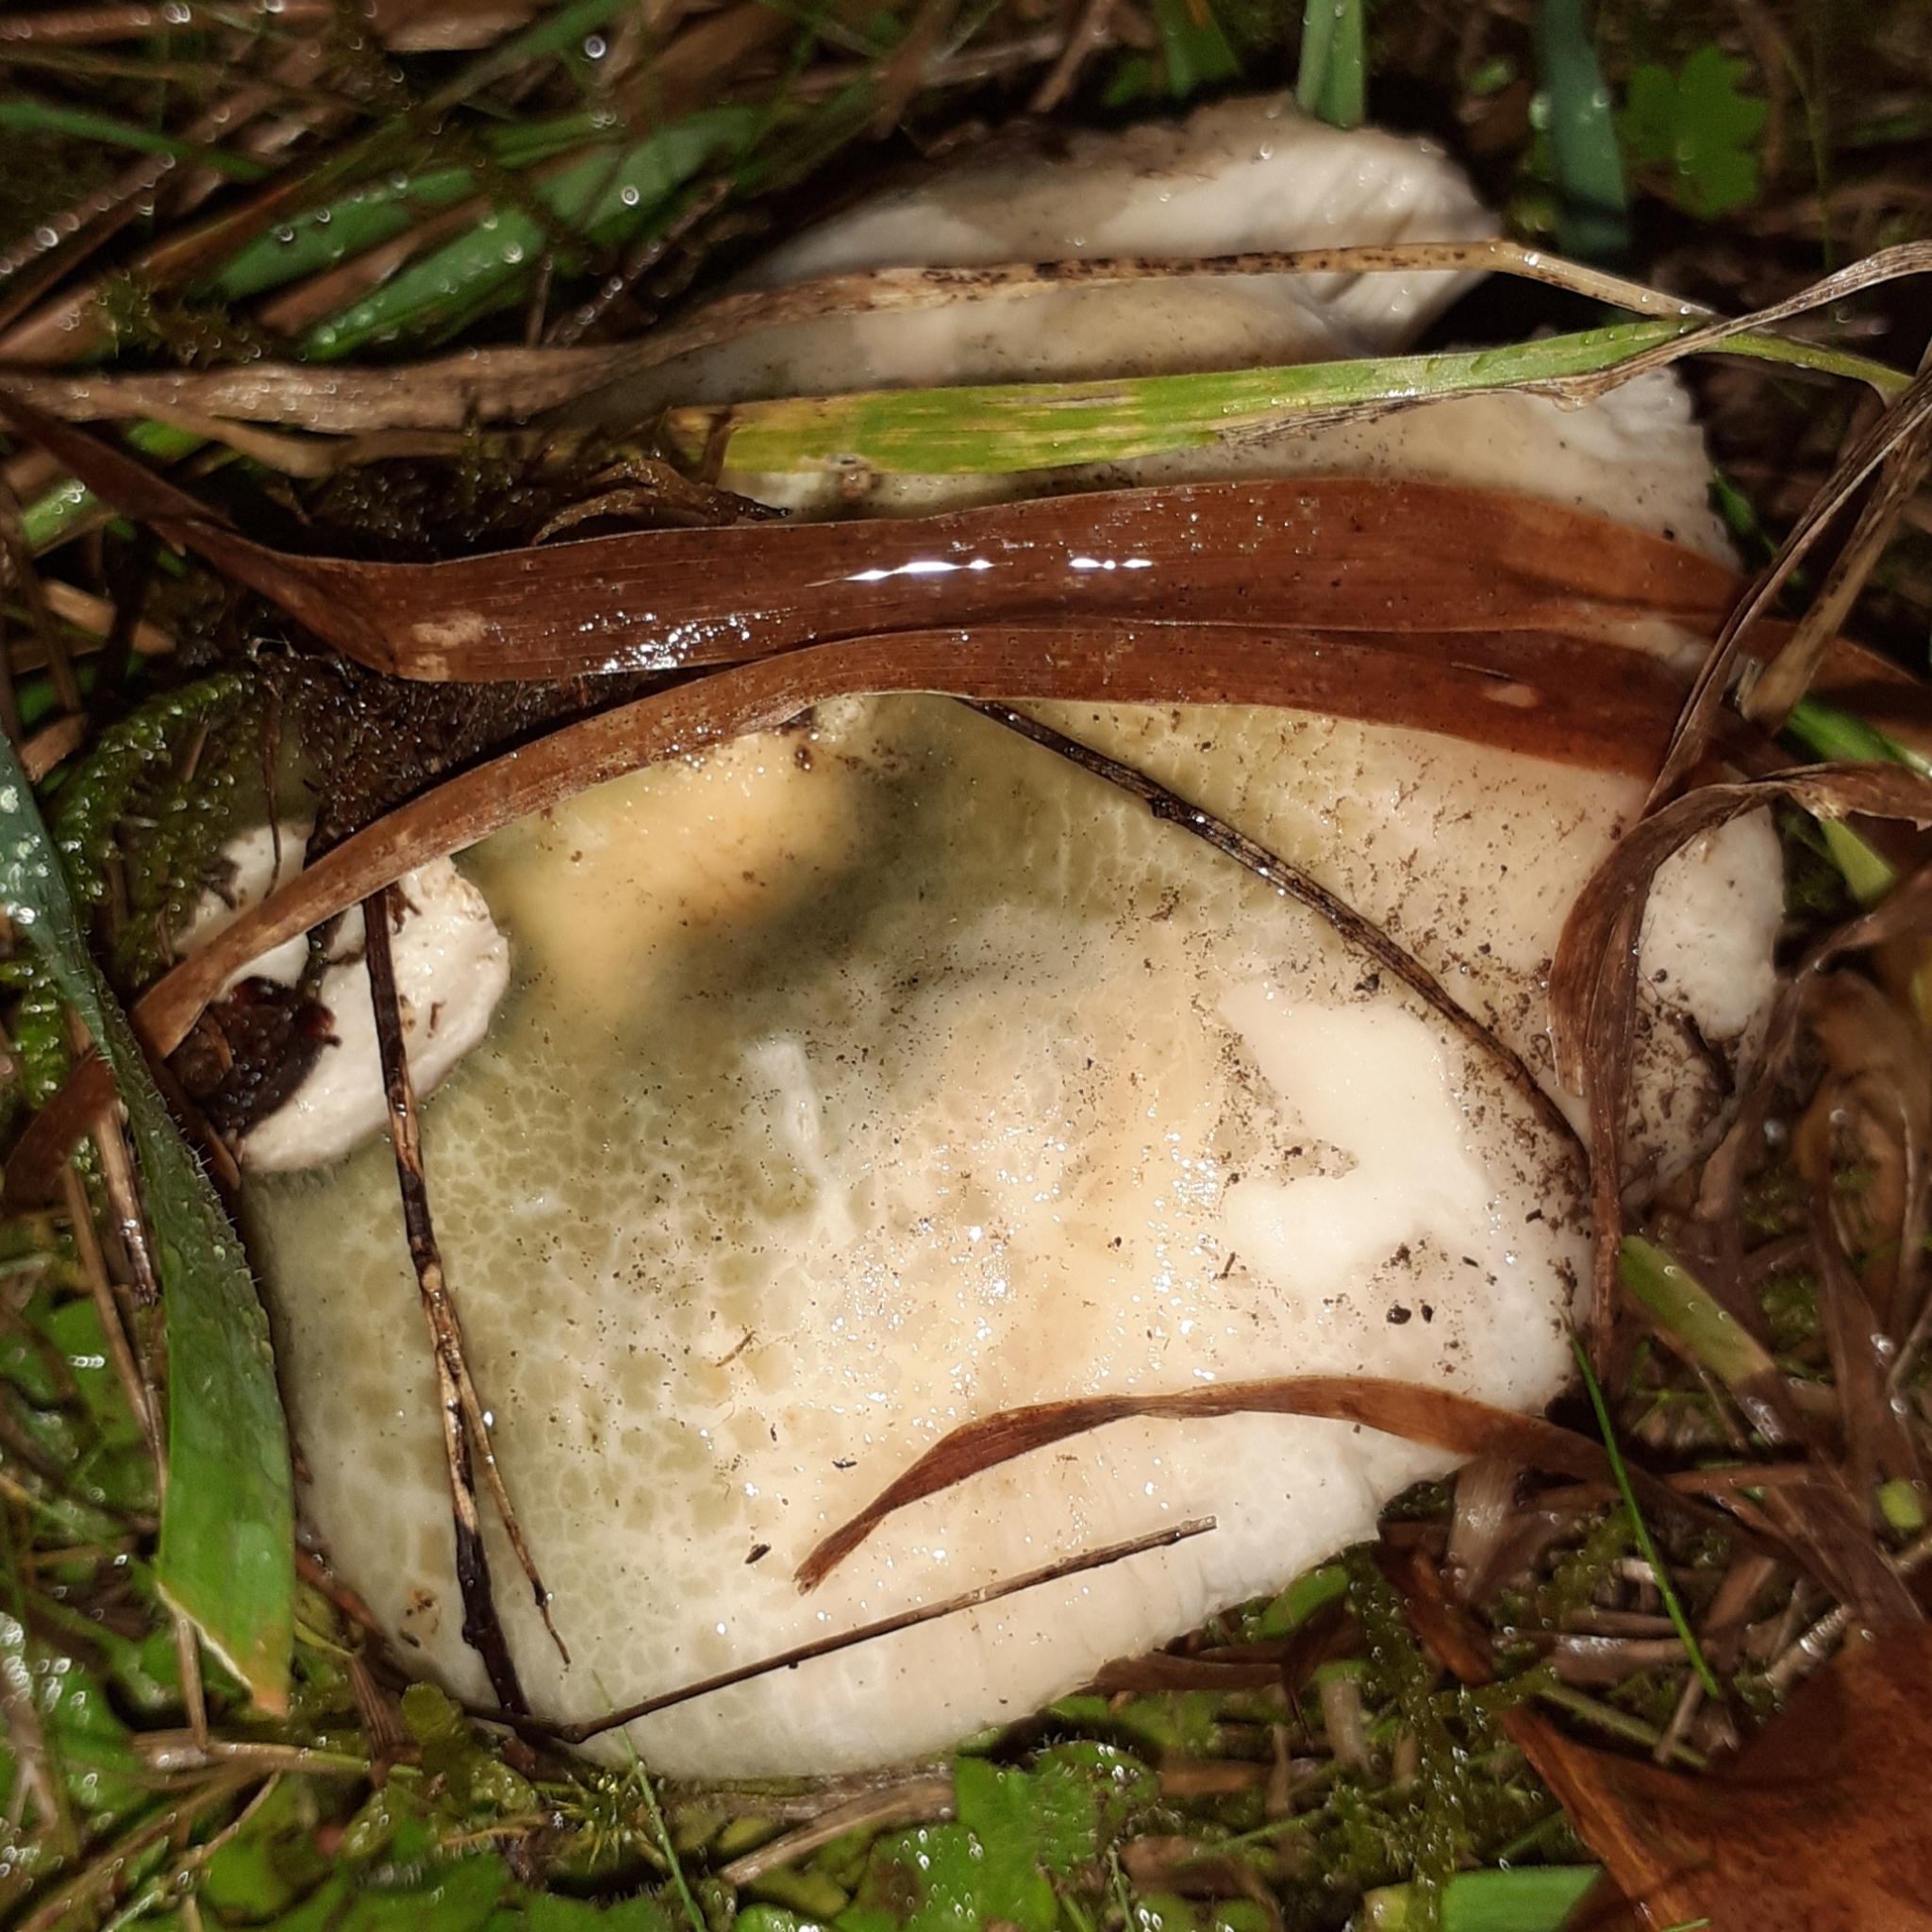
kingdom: Fungi
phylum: Basidiomycota
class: Agaricomycetes
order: Russulales
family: Russulaceae
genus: Russula
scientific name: Russula virescens
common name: Greencracked brittlegill
